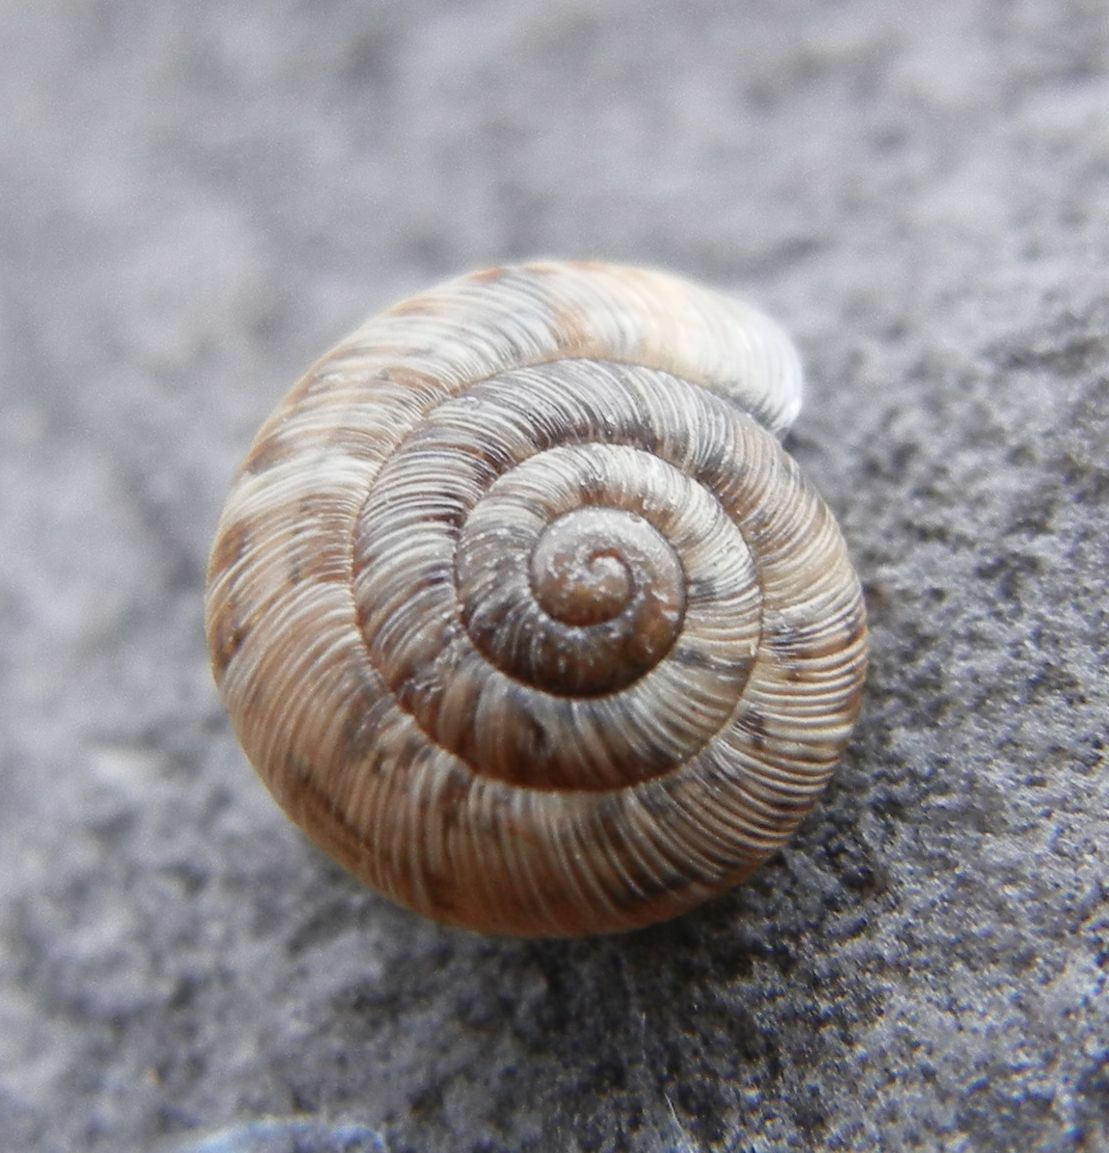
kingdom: Animalia
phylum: Mollusca
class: Gastropoda
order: Stylommatophora
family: Geomitridae
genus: Xeroplexa
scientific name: Xeroplexa intersecta
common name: Wrinkled snail
